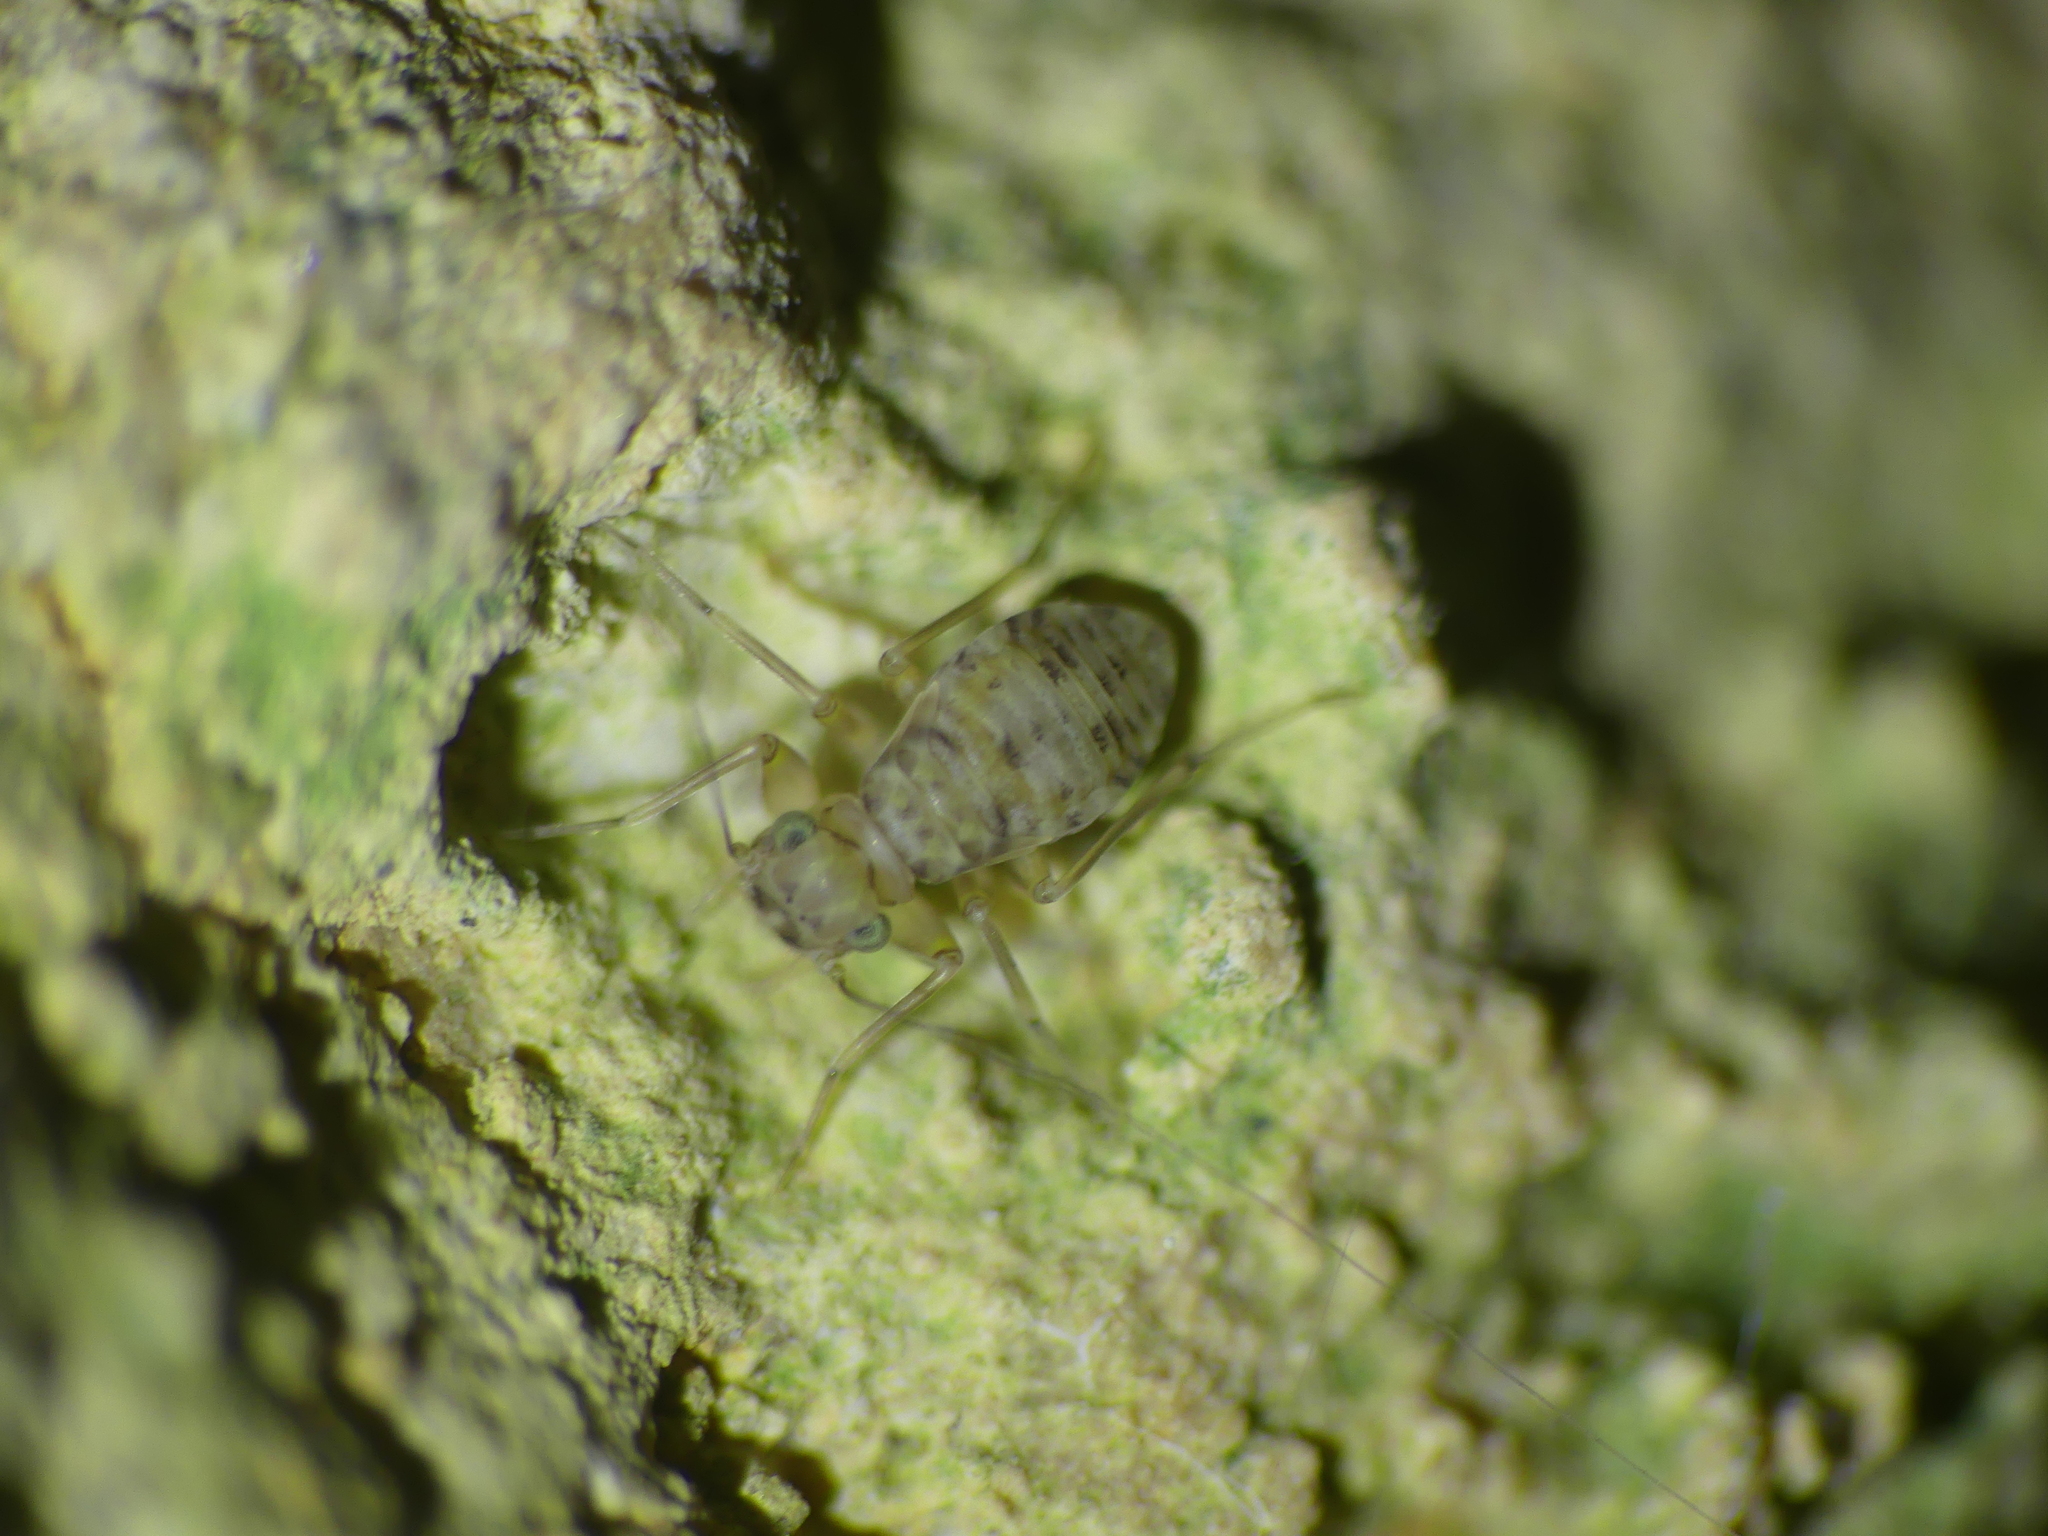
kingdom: Animalia
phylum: Arthropoda
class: Insecta
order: Psocodea
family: Prionoglarididae
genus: Prionoglaris
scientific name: Prionoglaris stygia
